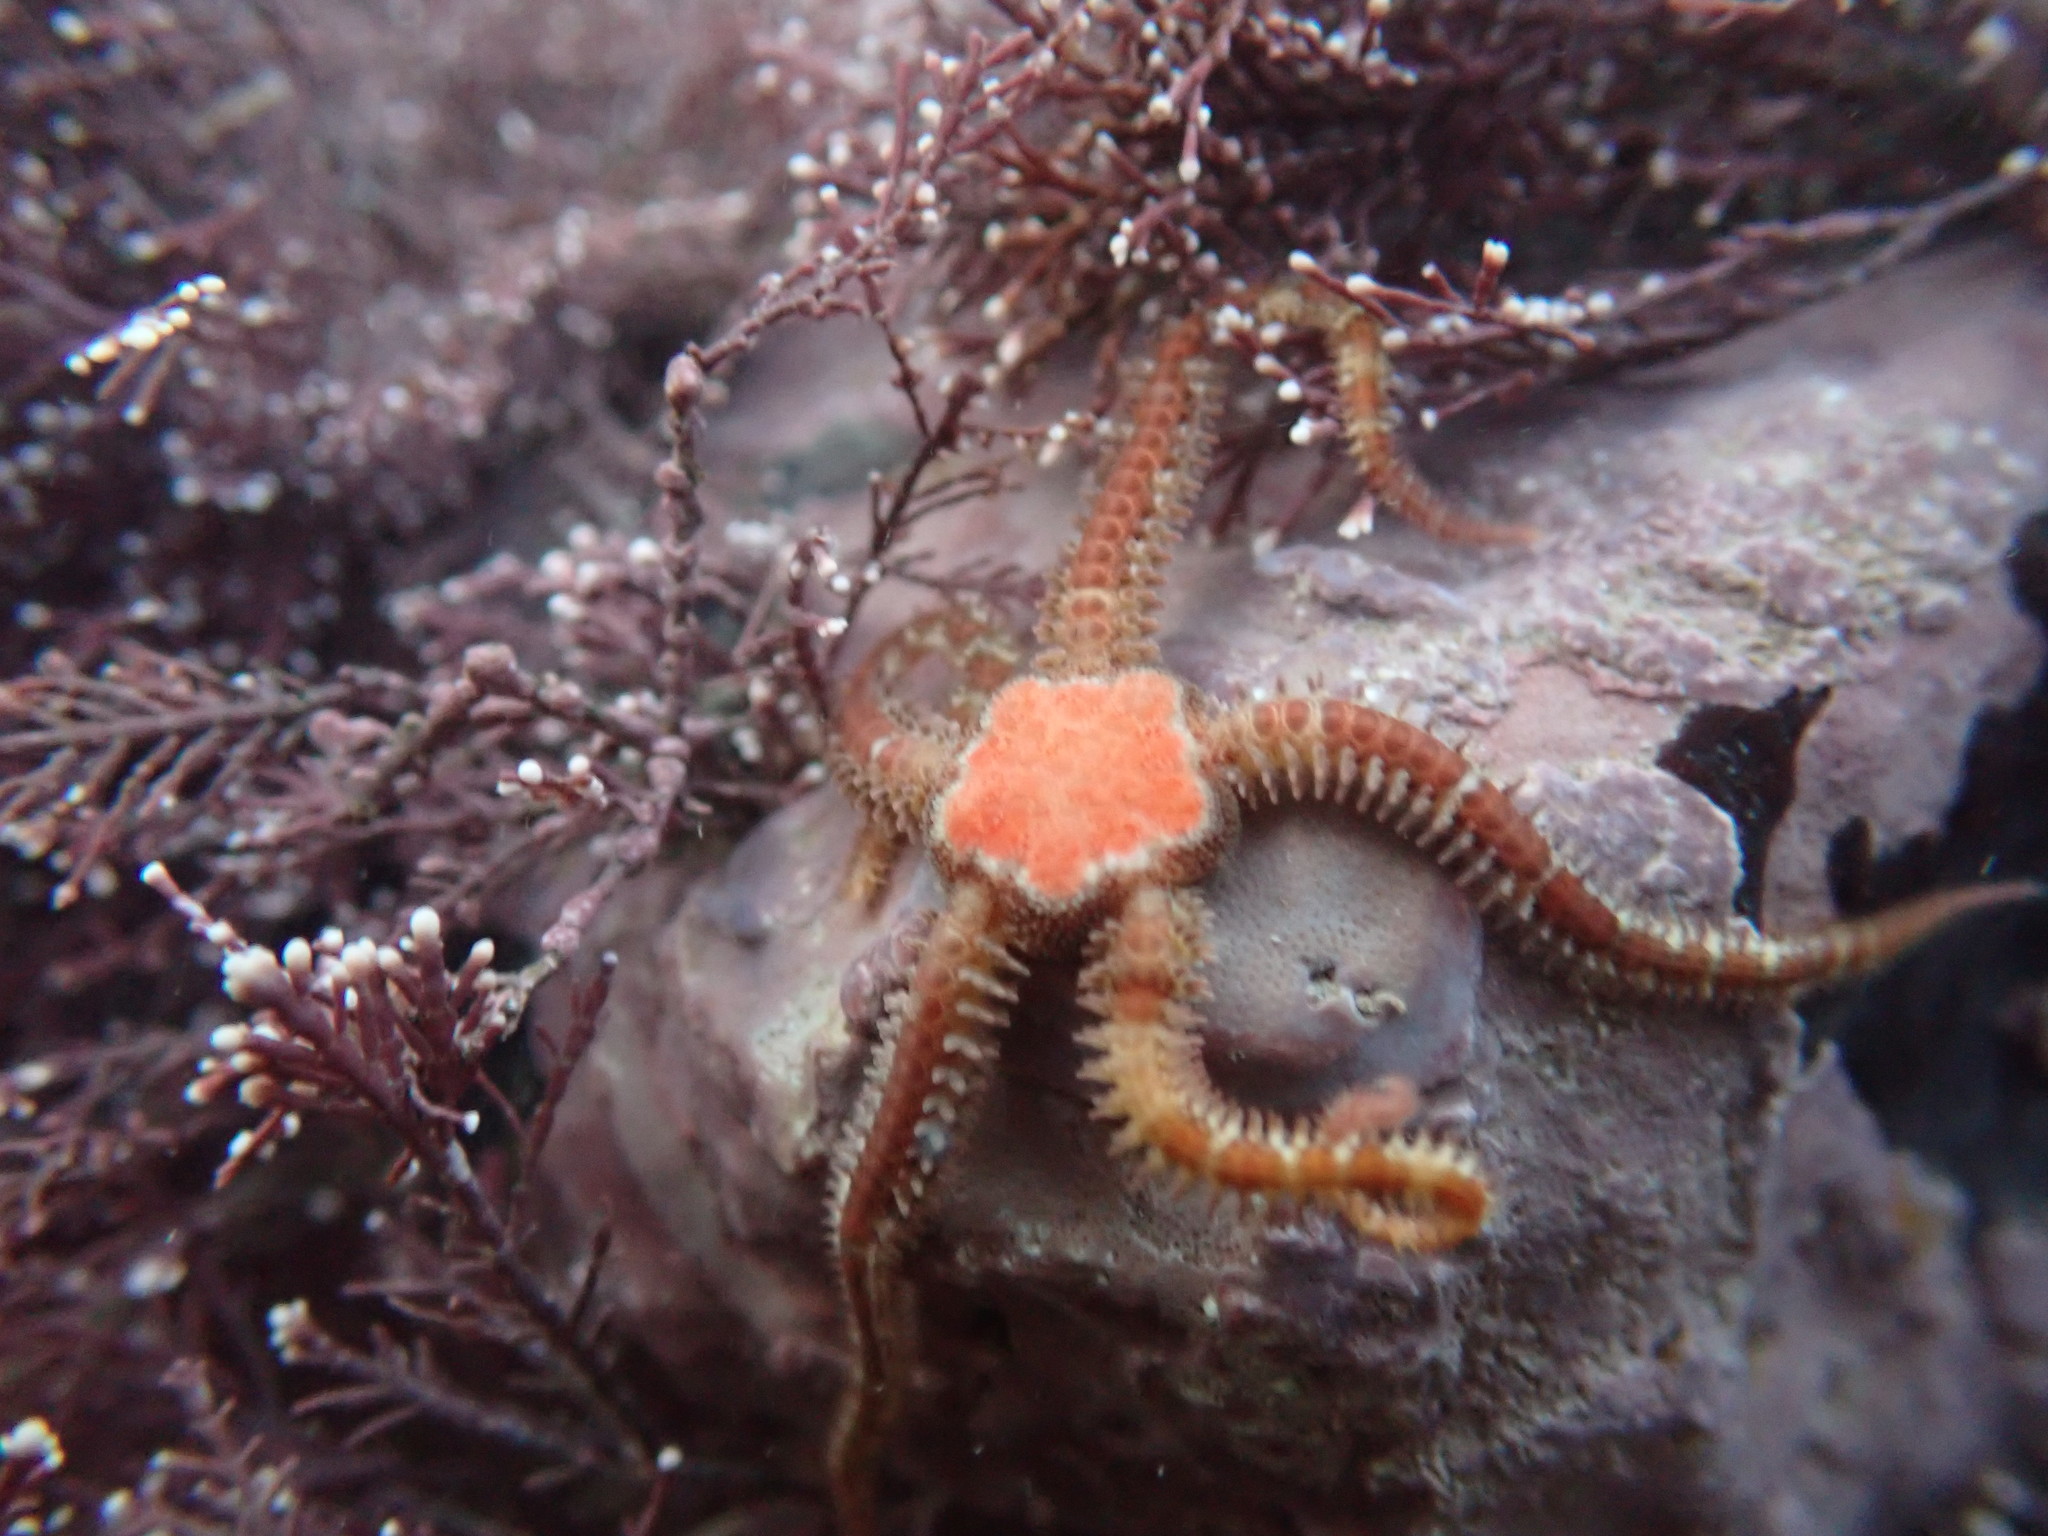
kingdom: Animalia
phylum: Echinodermata
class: Ophiuroidea
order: Amphilepidida
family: Ophiopholidae
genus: Ophiopholis
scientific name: Ophiopholis aculeata
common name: Crevice brittlestar
